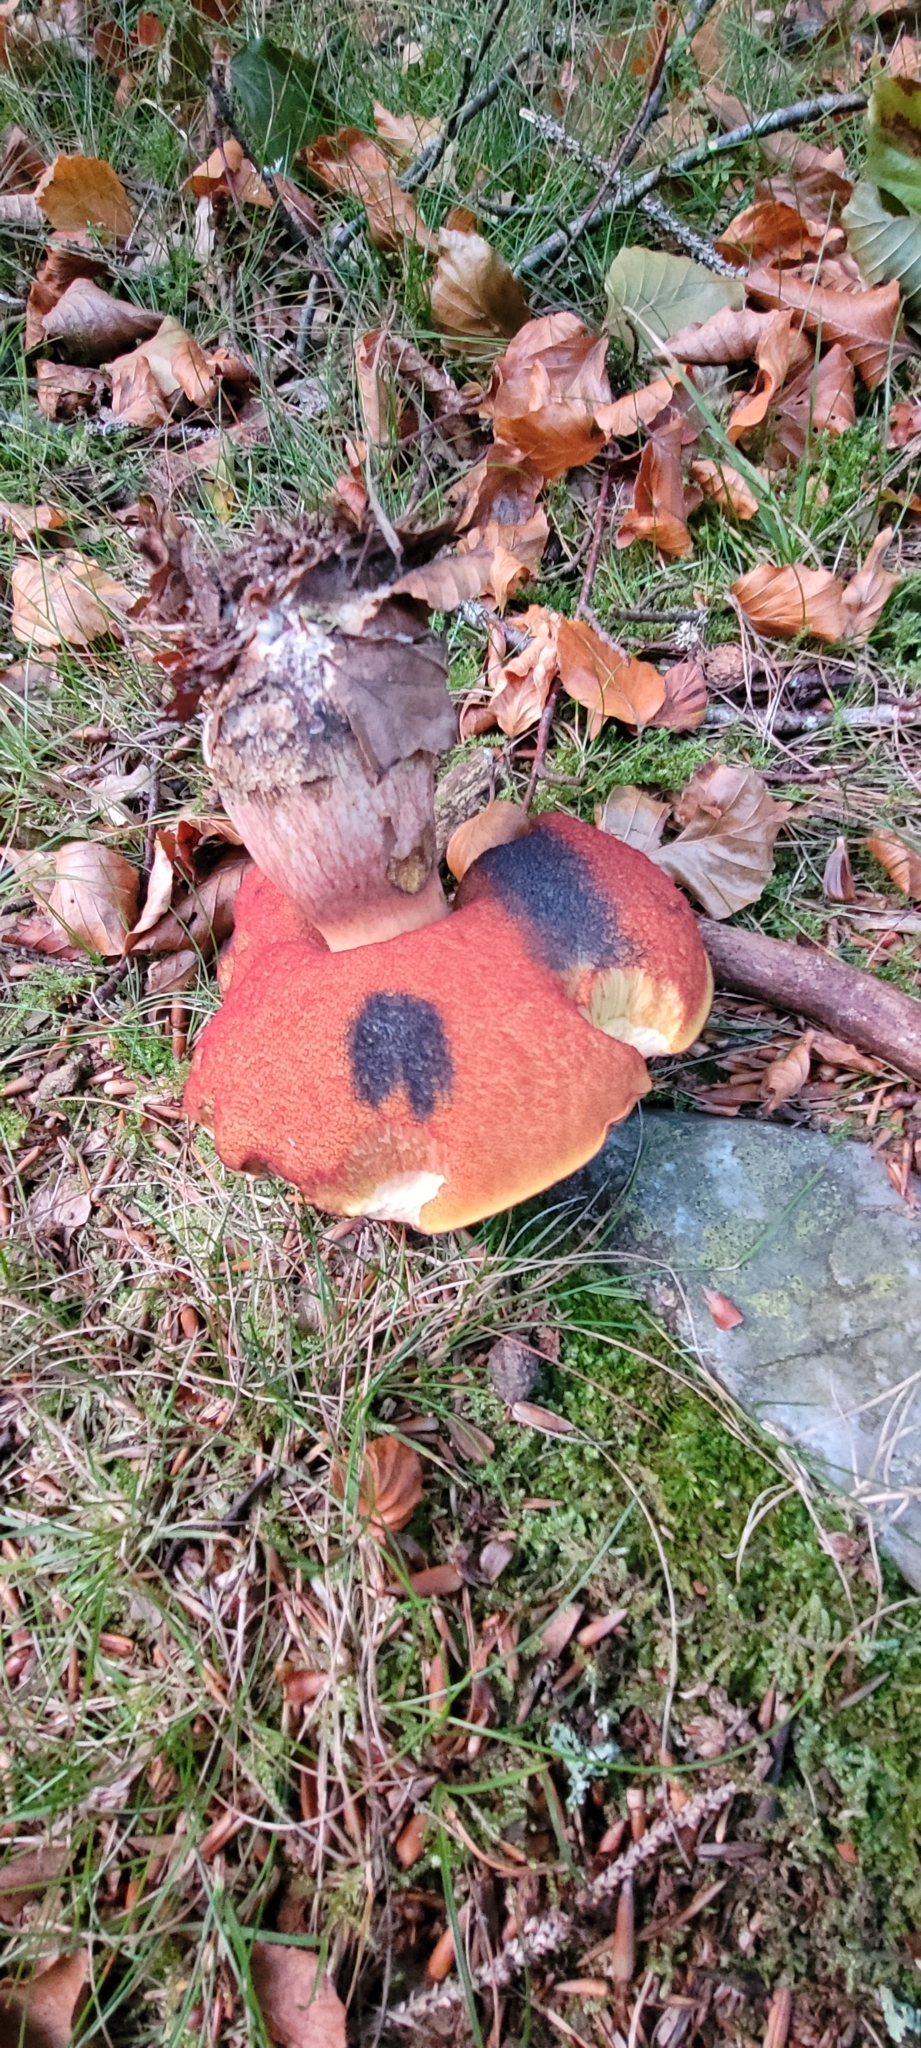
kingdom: Fungi
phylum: Basidiomycota
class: Agaricomycetes
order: Boletales
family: Boletaceae
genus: Neoboletus
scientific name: Neoboletus erythropus
